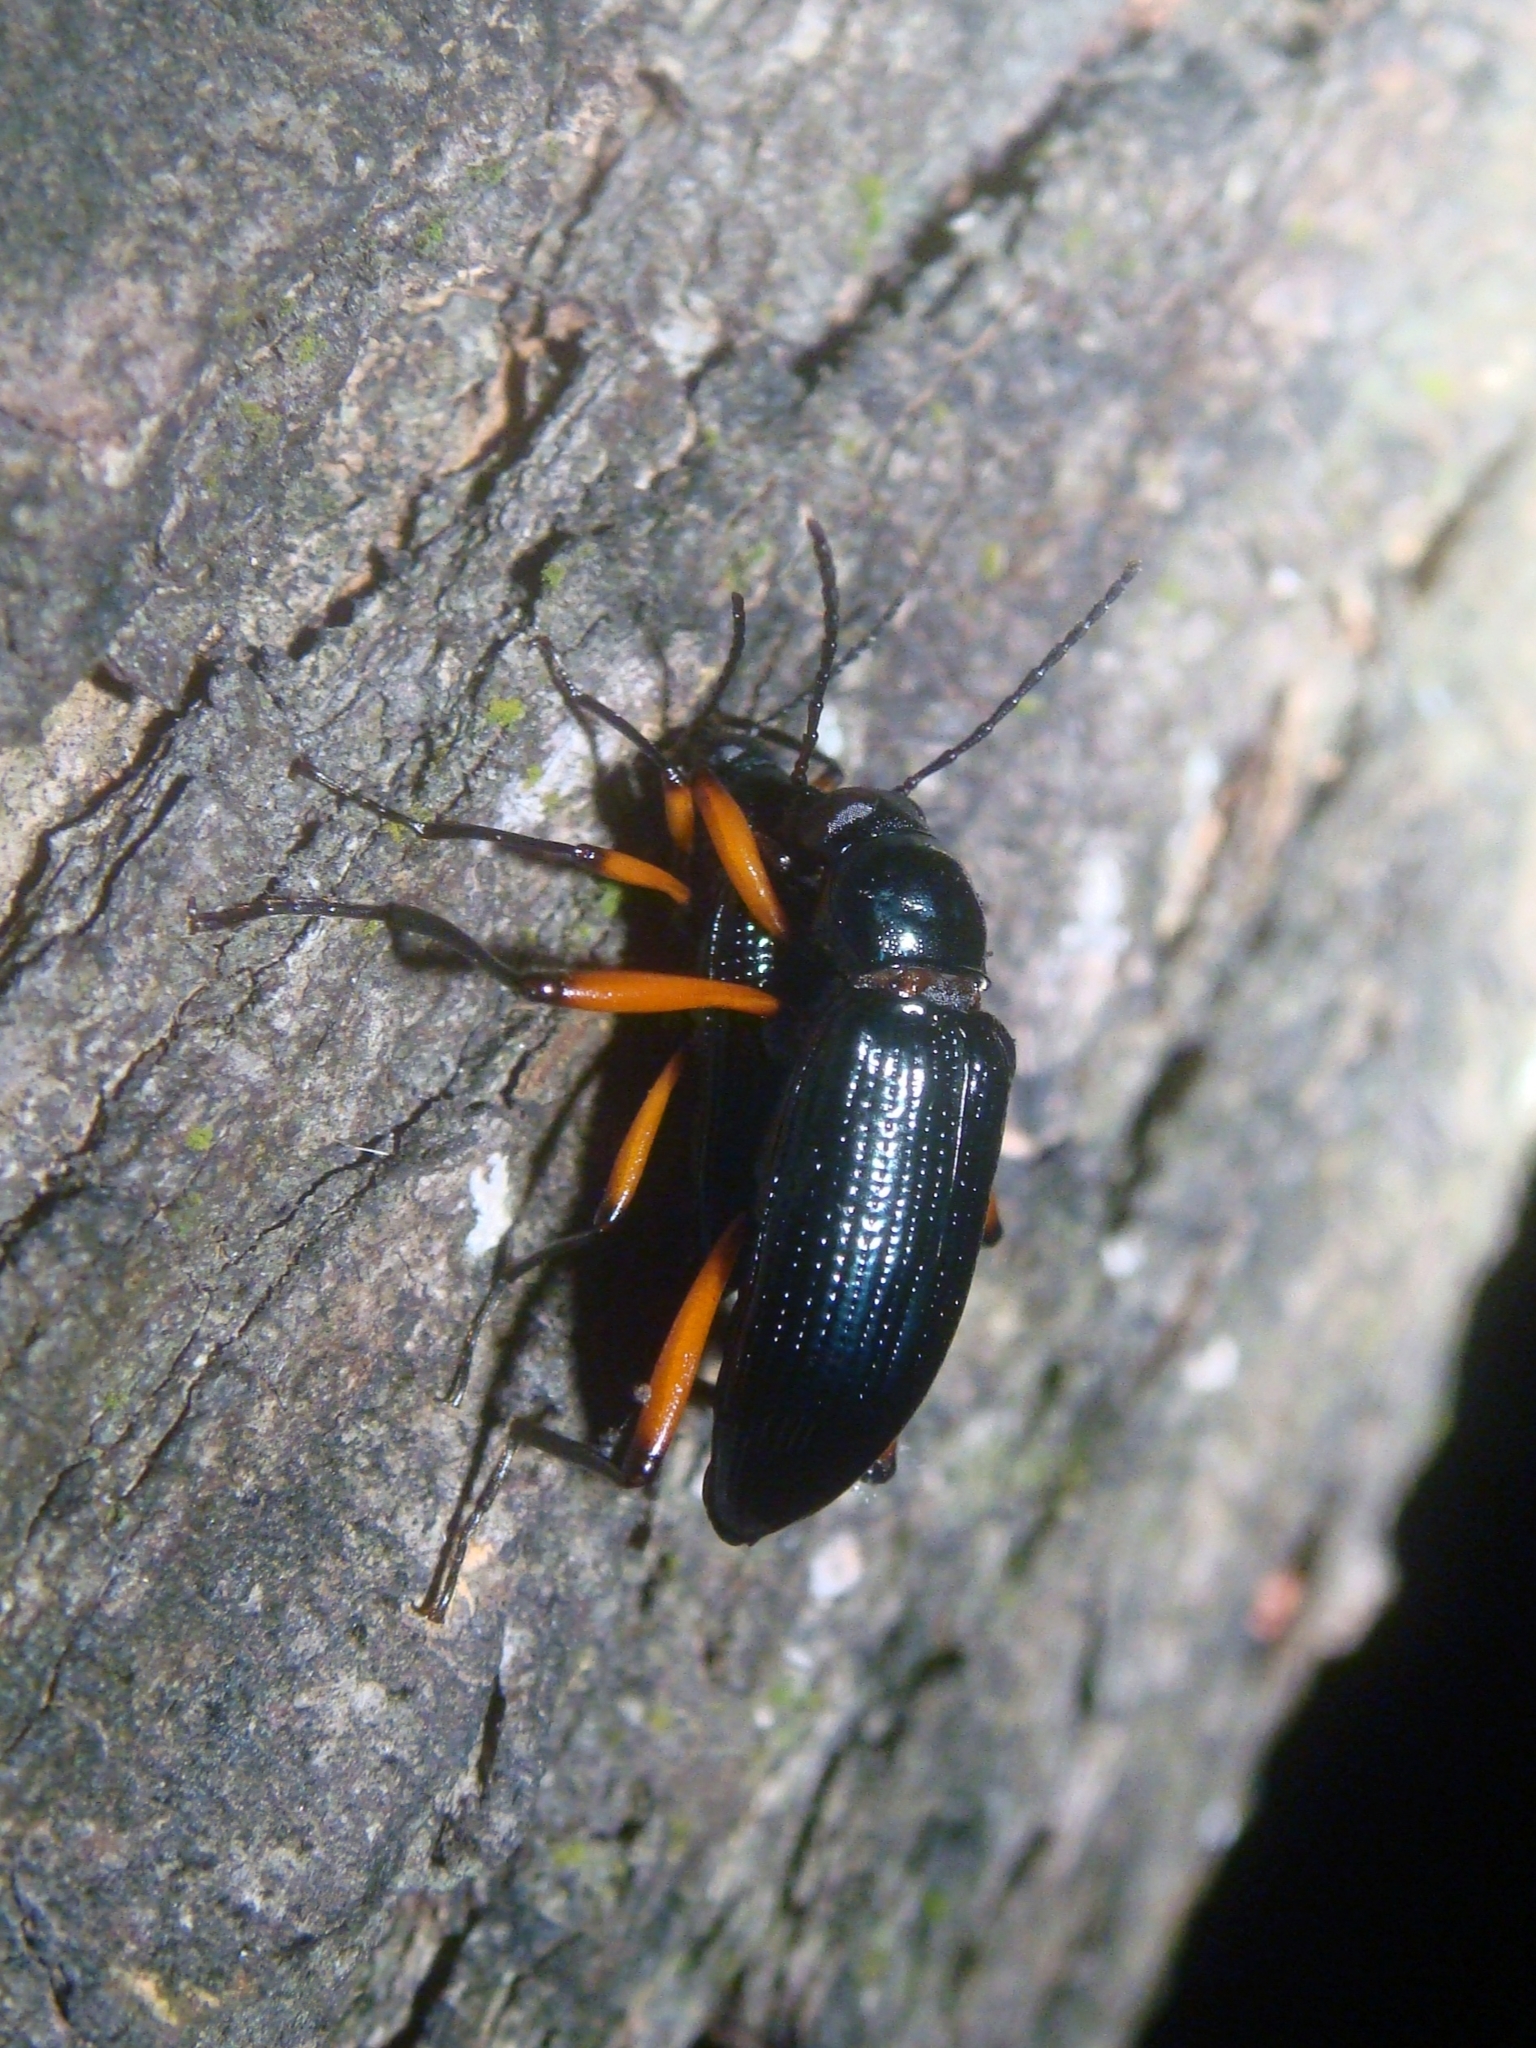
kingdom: Animalia
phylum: Arthropoda
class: Insecta
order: Coleoptera
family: Tenebrionidae
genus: Strongylium
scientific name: Strongylium erythrocephalum
